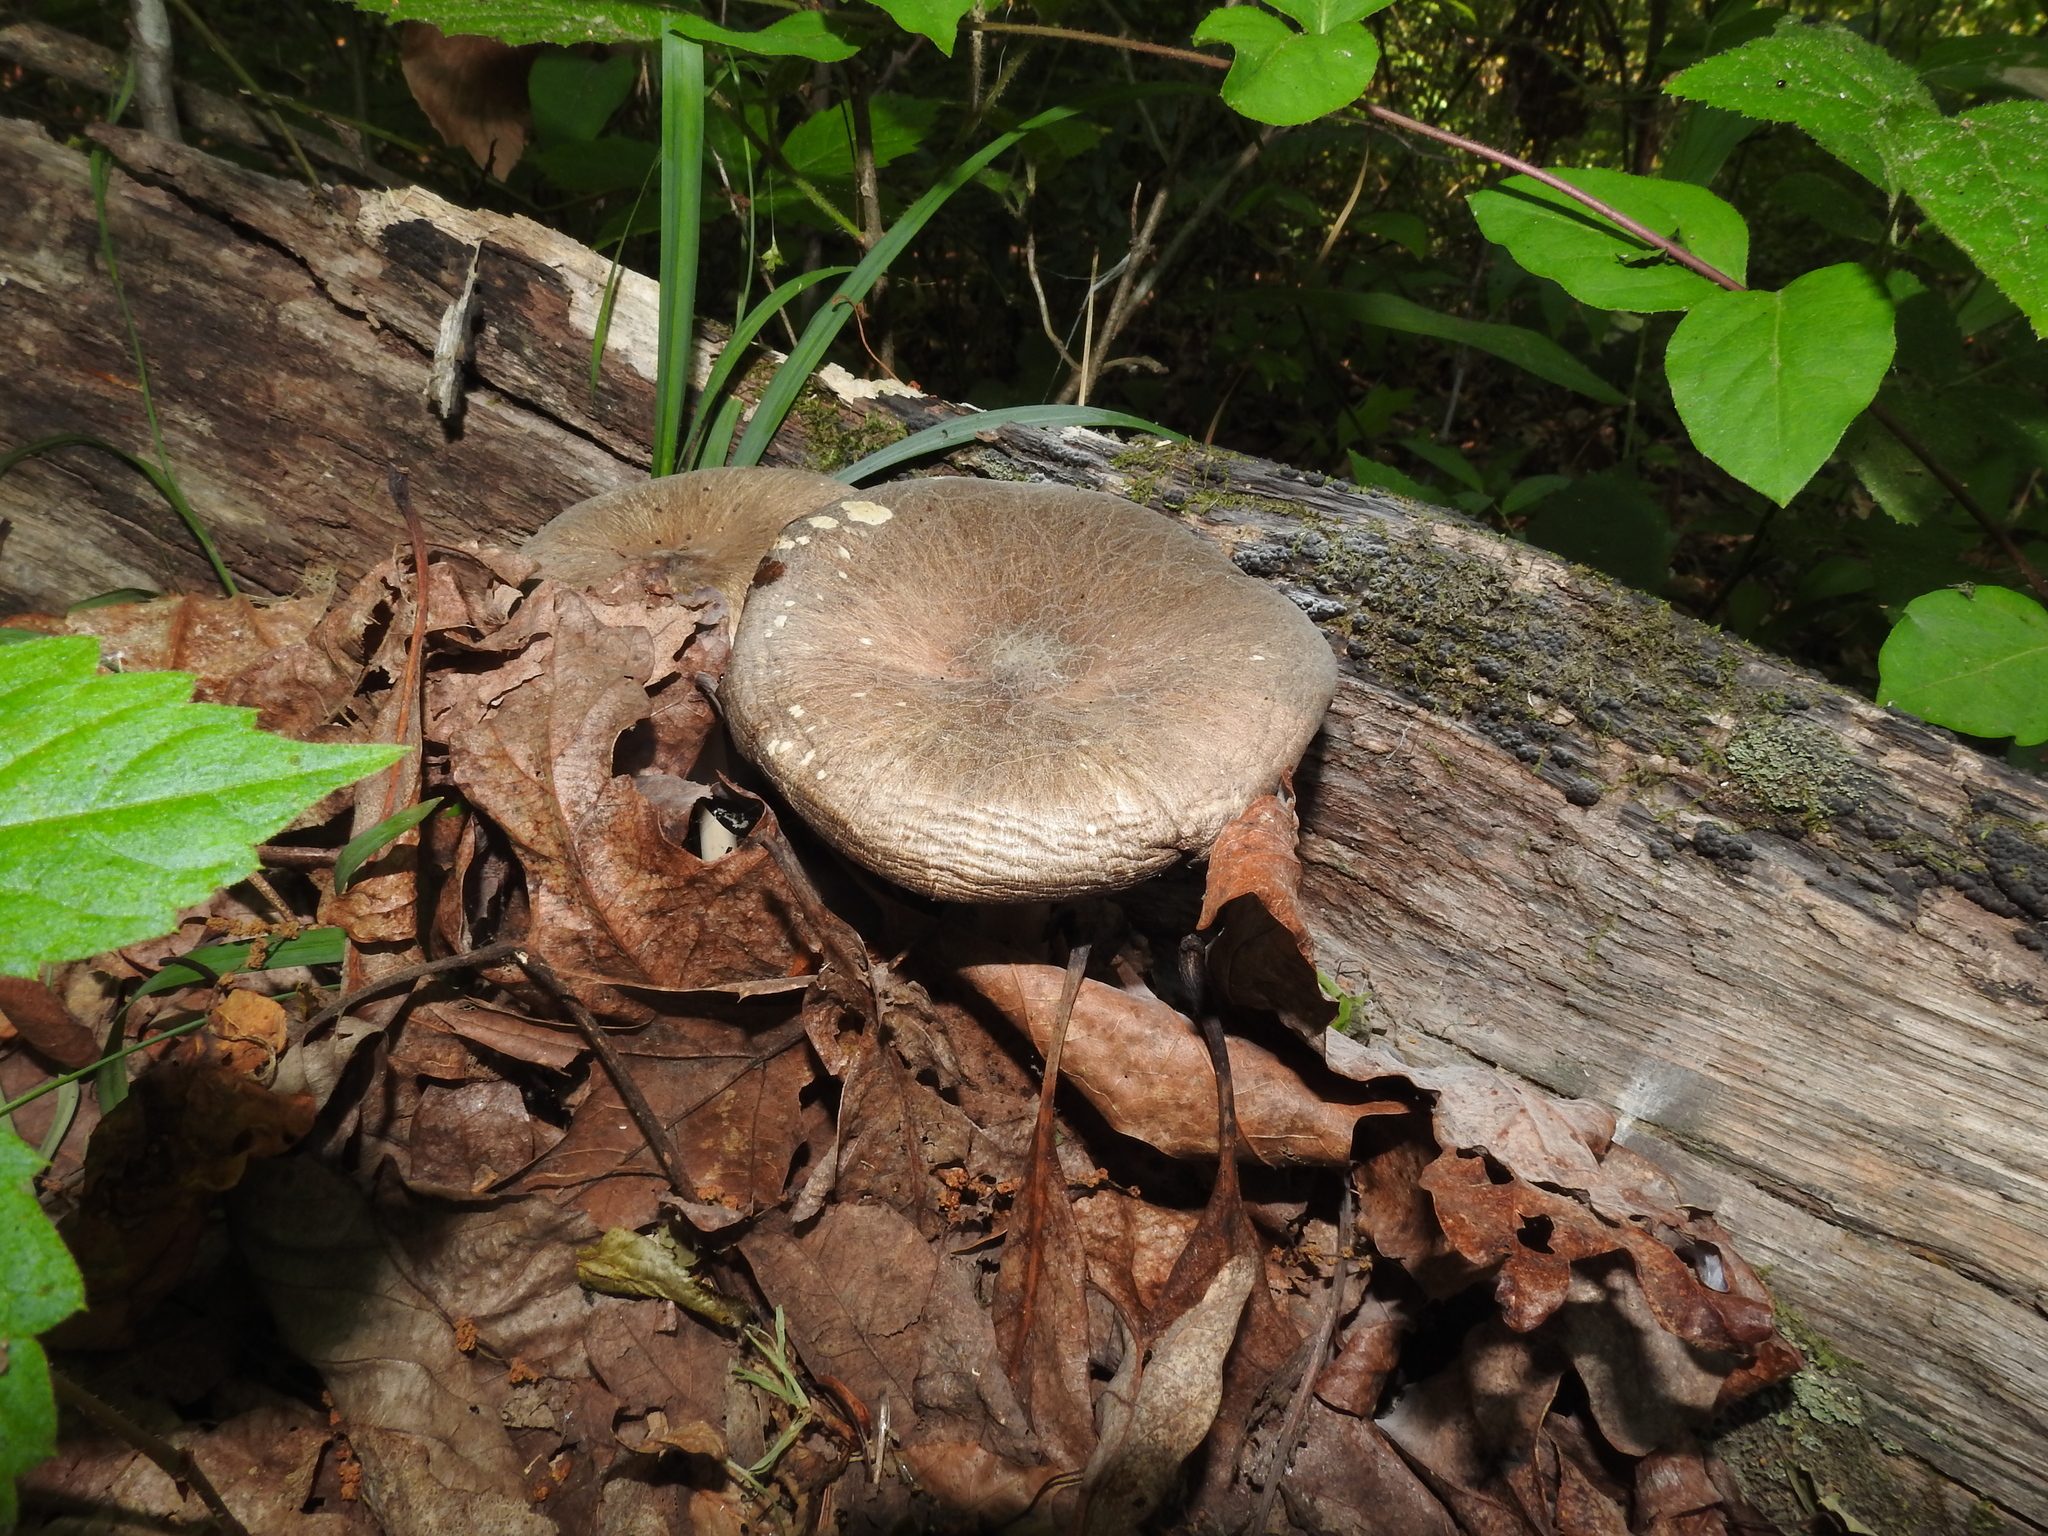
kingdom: Fungi
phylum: Basidiomycota
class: Agaricomycetes
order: Agaricales
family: Tricholomataceae
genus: Megacollybia
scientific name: Megacollybia rodmanii
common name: Eastern american platterful mushroom
